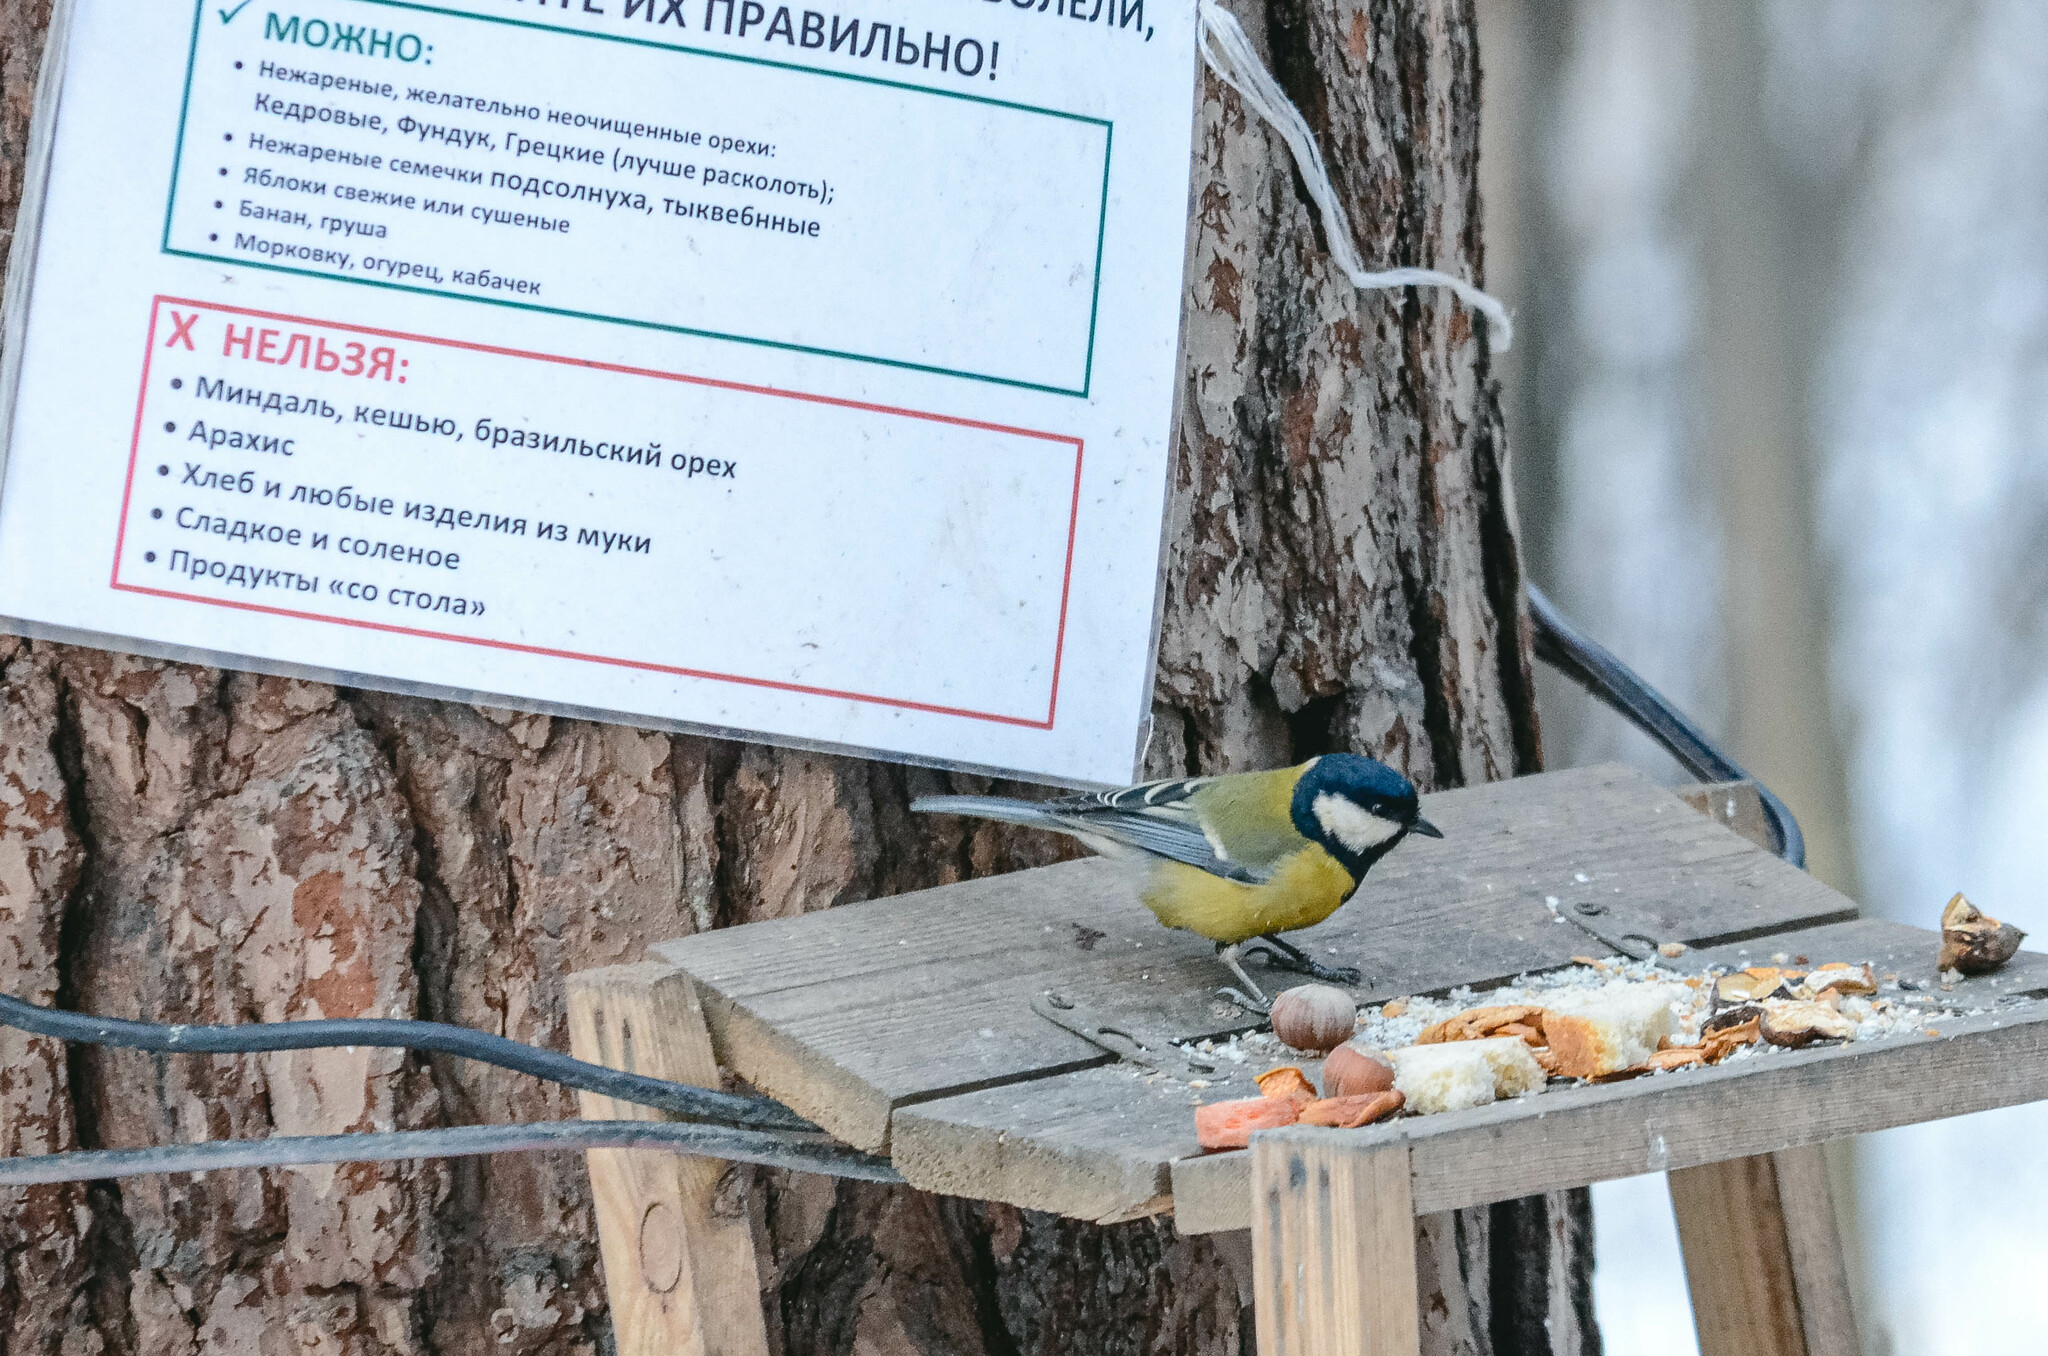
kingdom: Animalia
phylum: Chordata
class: Aves
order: Passeriformes
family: Paridae
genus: Parus
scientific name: Parus major
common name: Great tit
